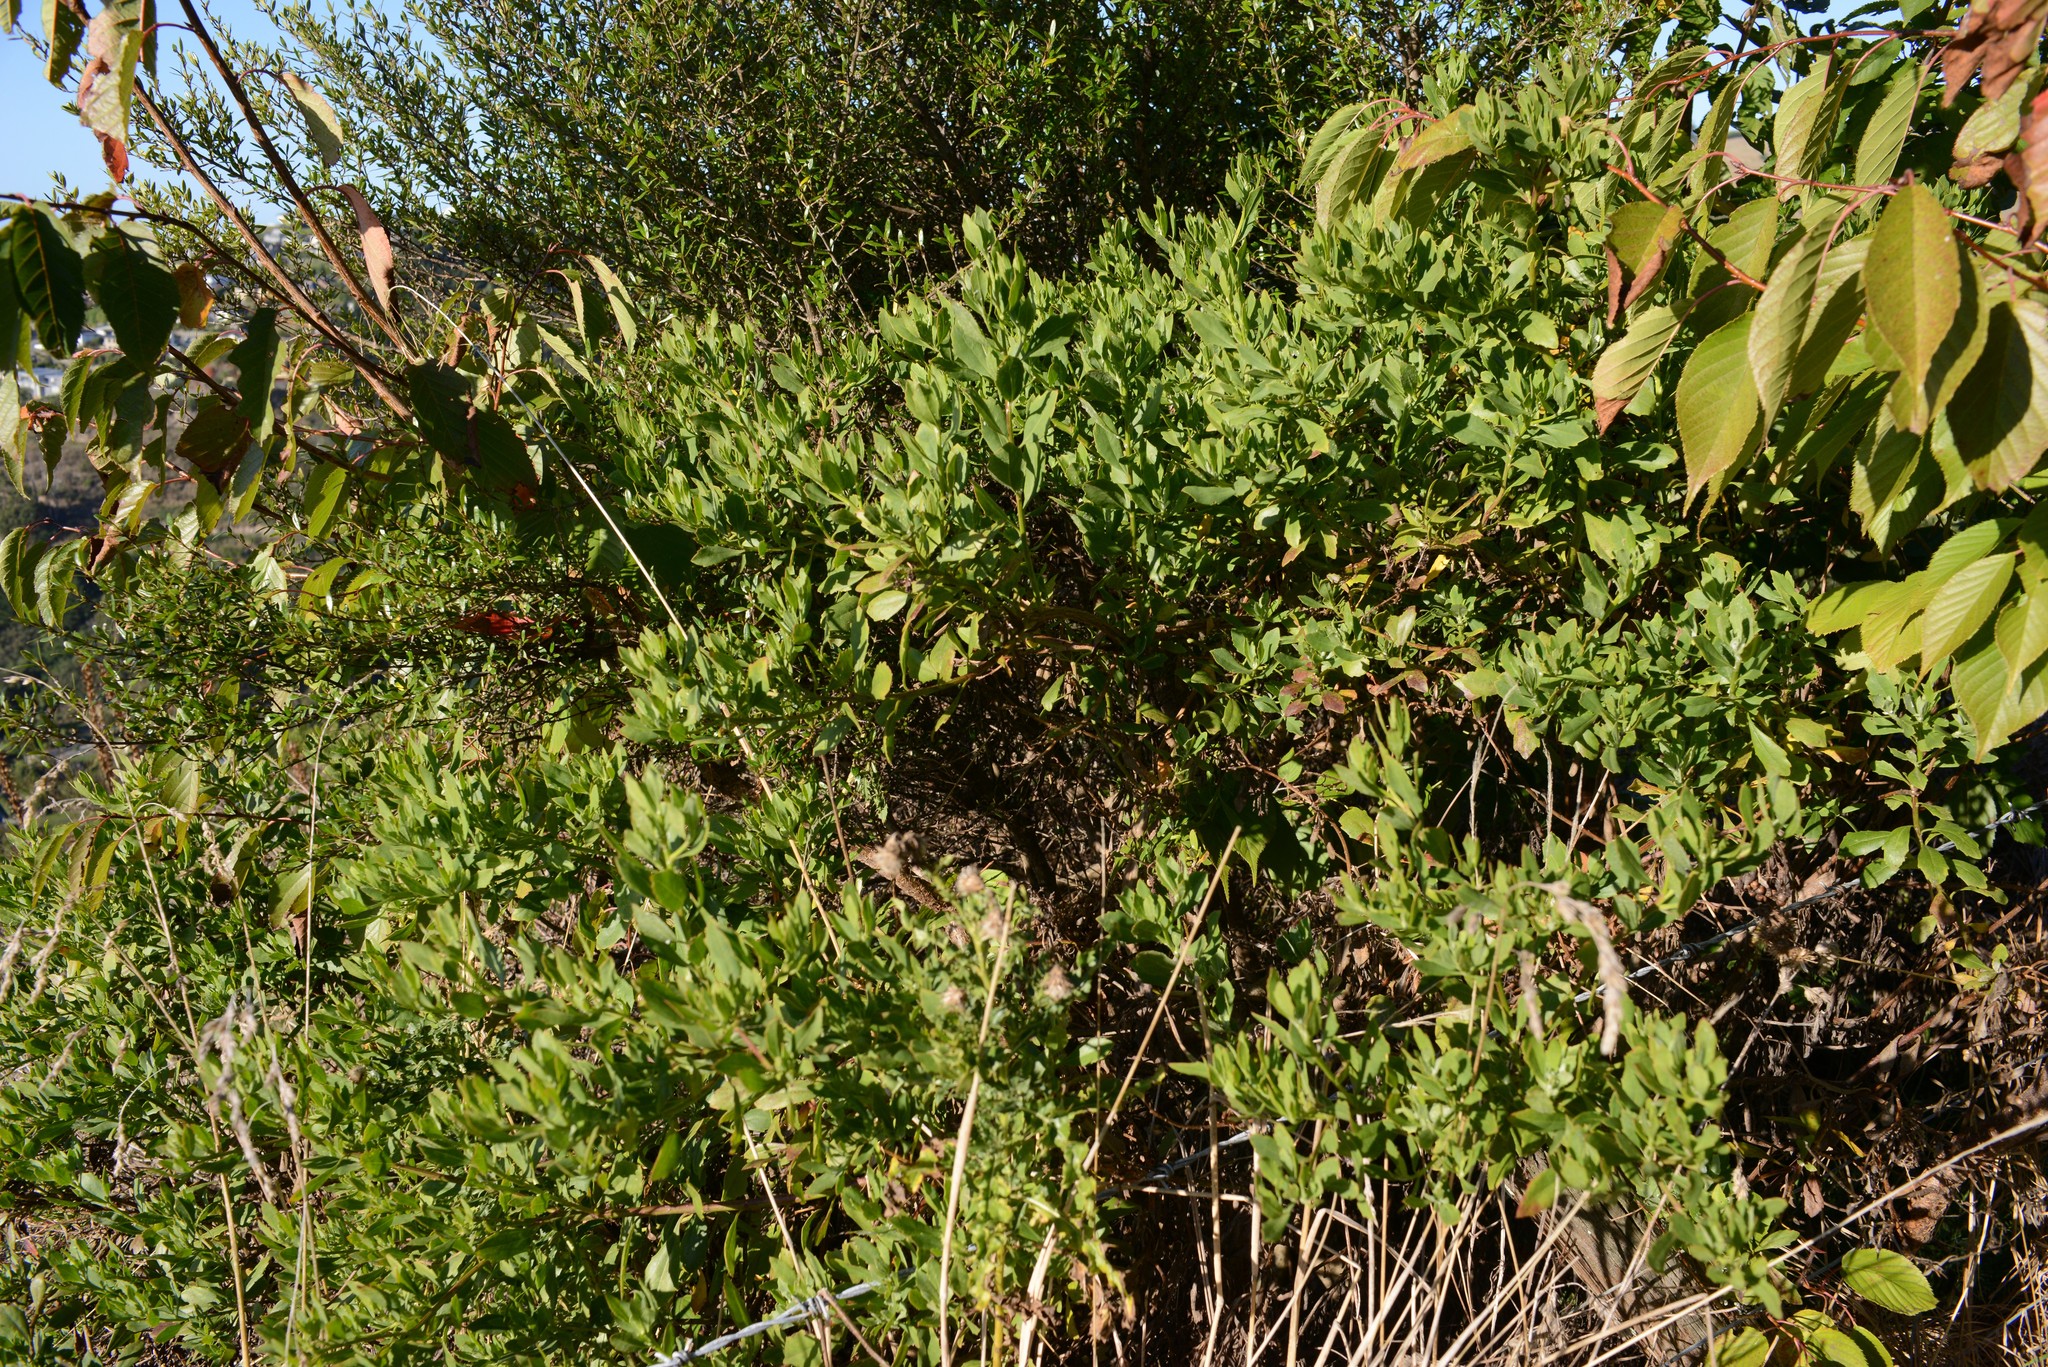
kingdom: Plantae
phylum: Tracheophyta
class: Magnoliopsida
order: Asterales
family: Asteraceae
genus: Osteospermum
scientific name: Osteospermum moniliferum
